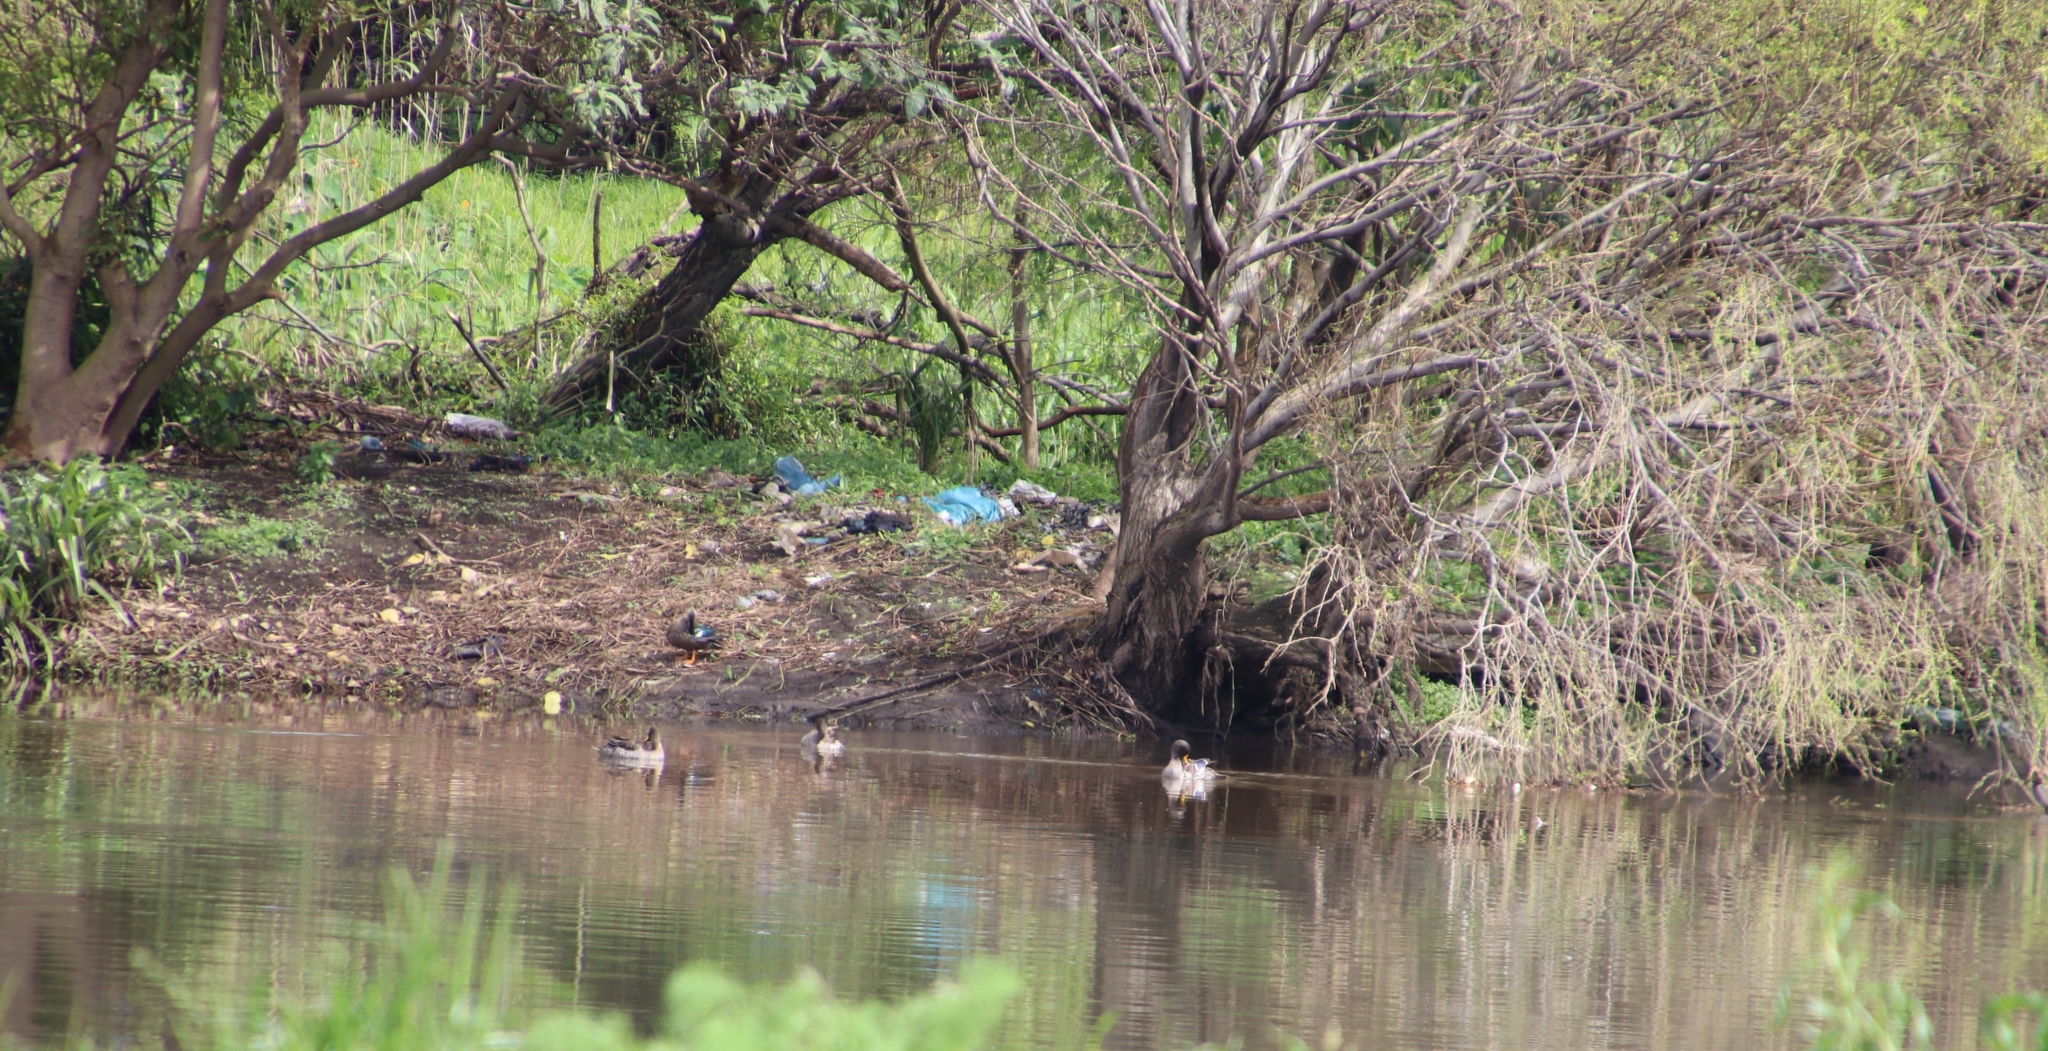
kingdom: Animalia
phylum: Chordata
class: Aves
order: Anseriformes
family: Anatidae
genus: Anas
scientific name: Anas undulata
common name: Yellow-billed duck
